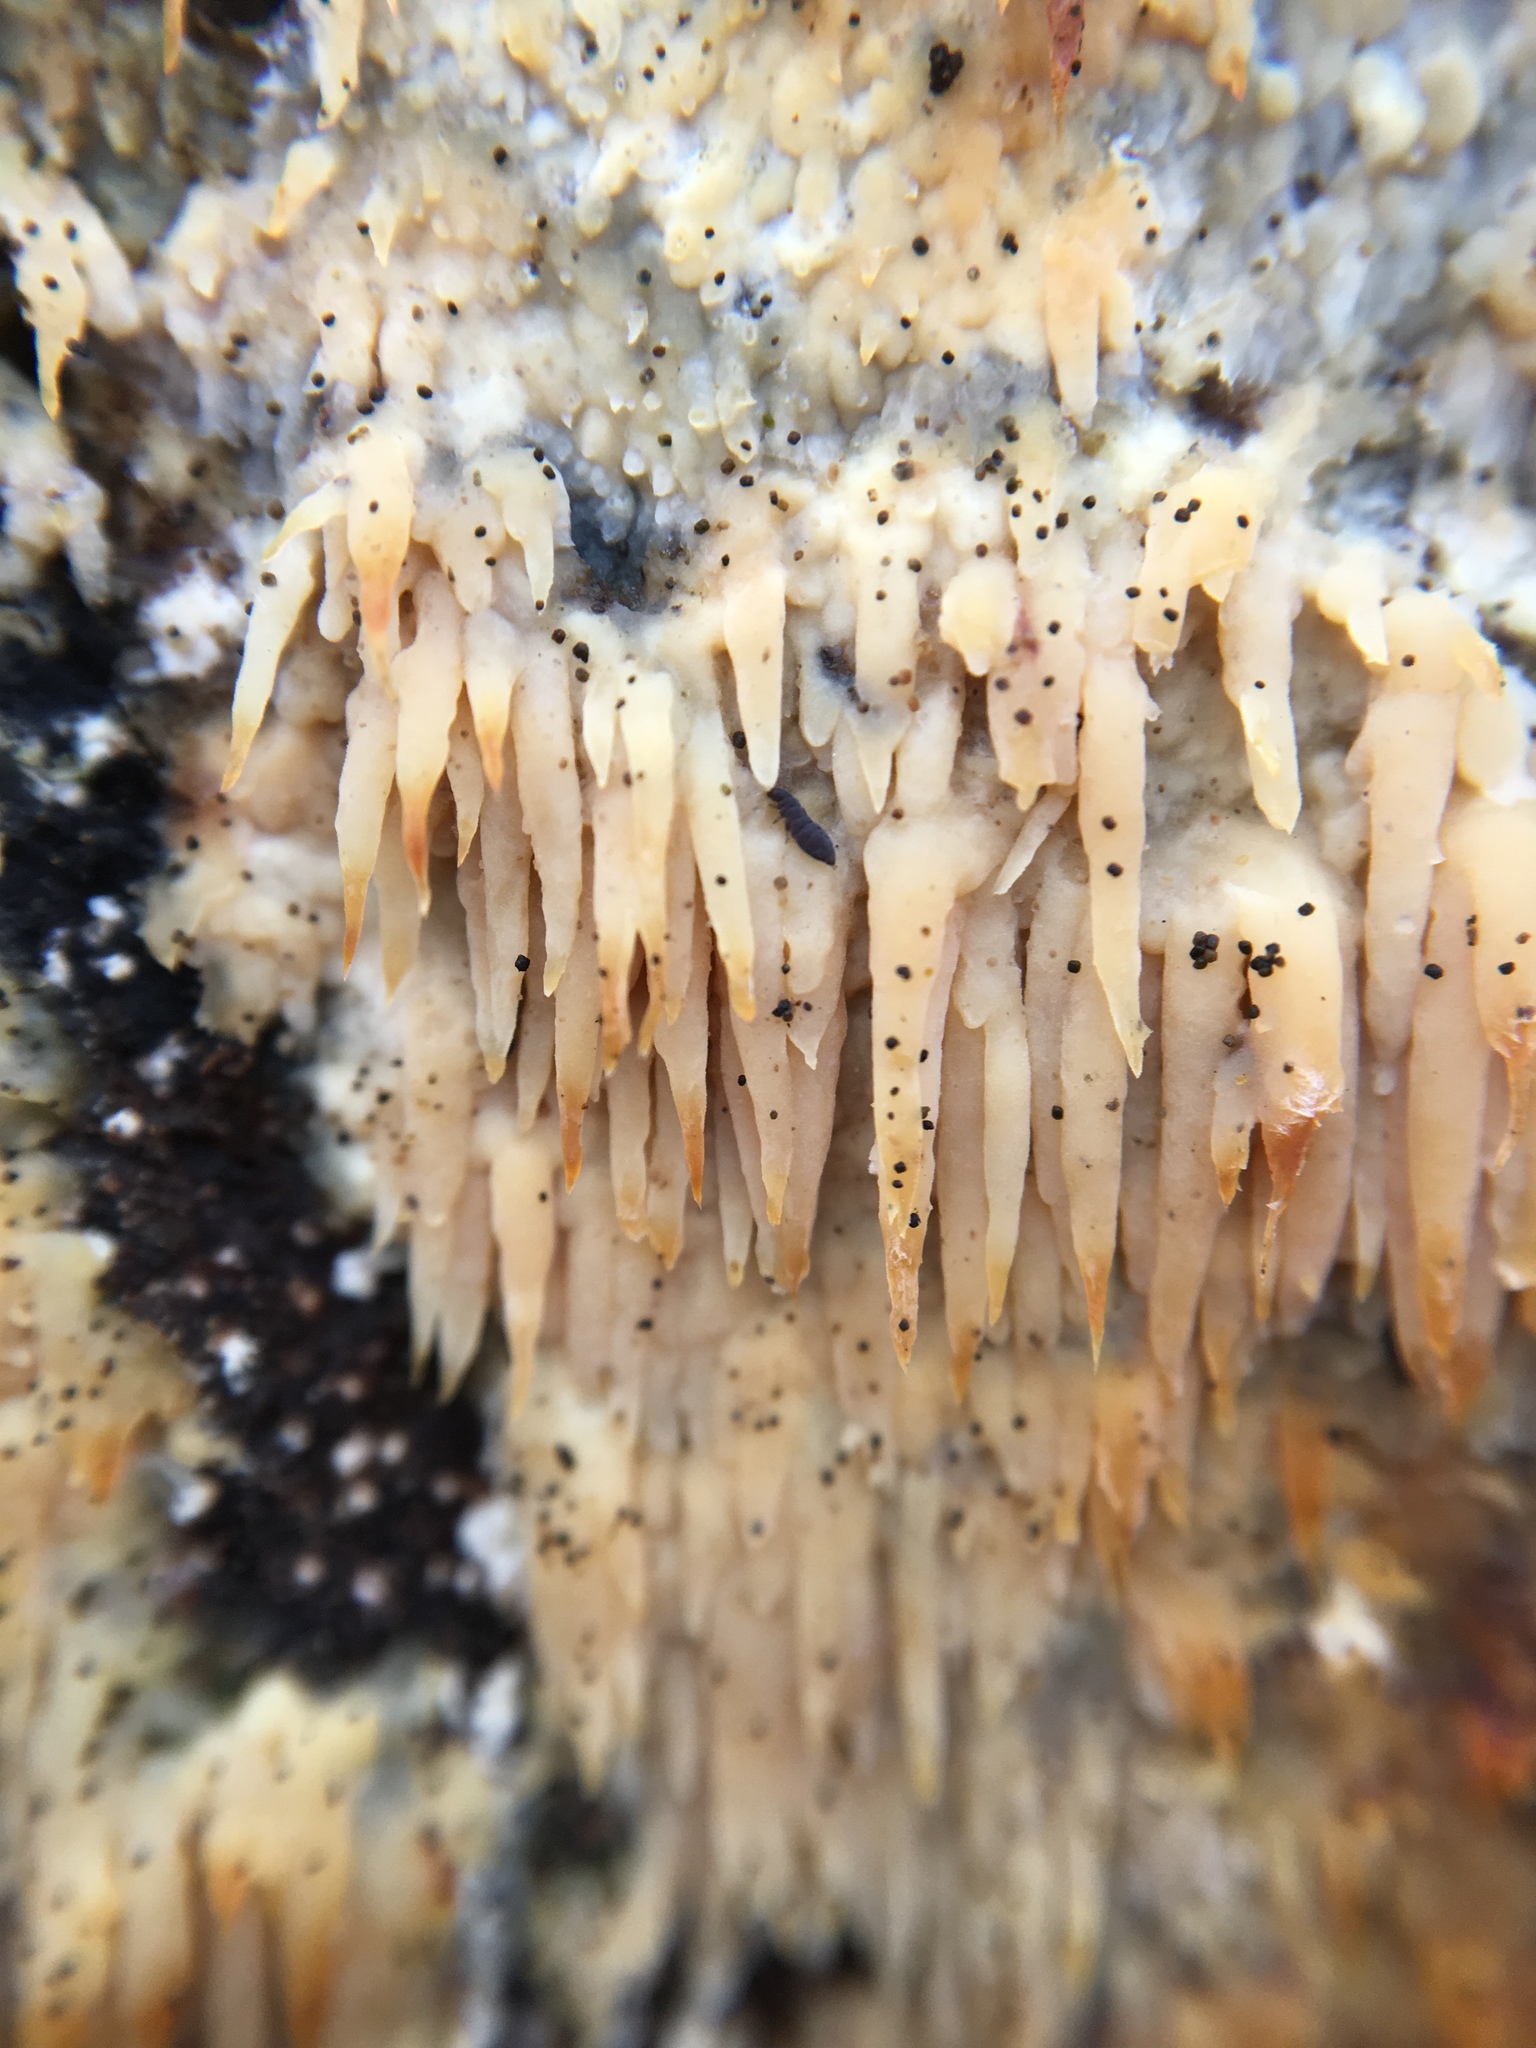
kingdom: Fungi
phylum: Basidiomycota
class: Agaricomycetes
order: Agaricales
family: Radulomycetaceae
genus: Radulomyces
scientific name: Radulomyces copelandii
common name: Asian beauty
